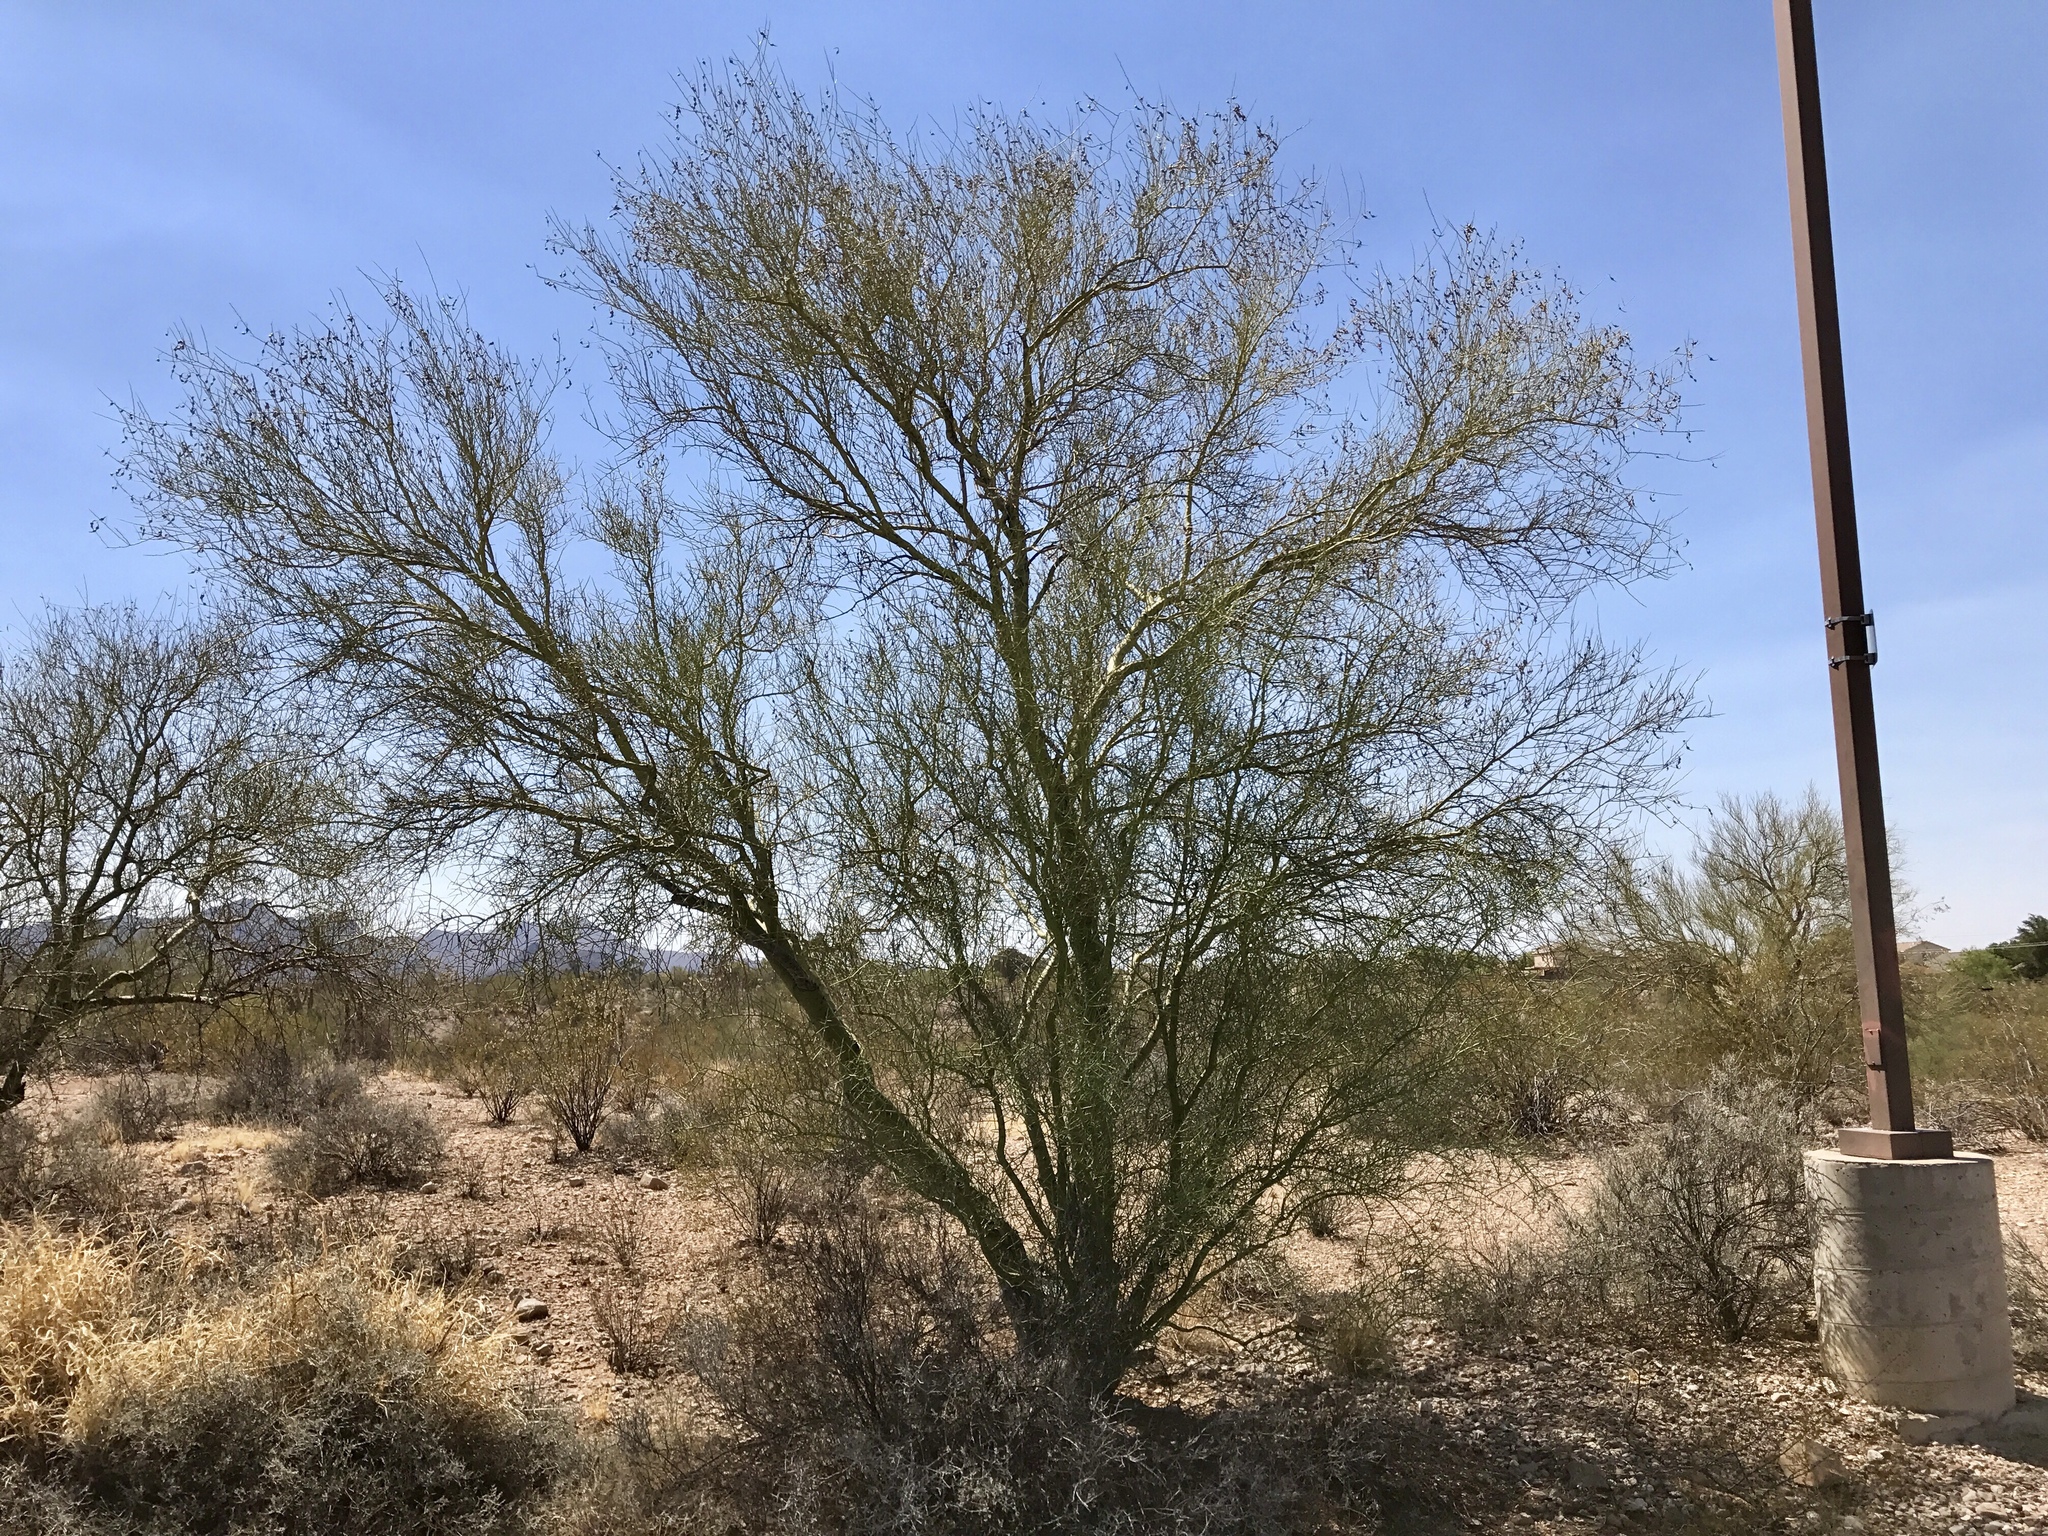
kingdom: Plantae
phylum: Tracheophyta
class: Magnoliopsida
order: Fabales
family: Fabaceae
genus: Parkinsonia
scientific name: Parkinsonia microphylla
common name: Yellow paloverde
